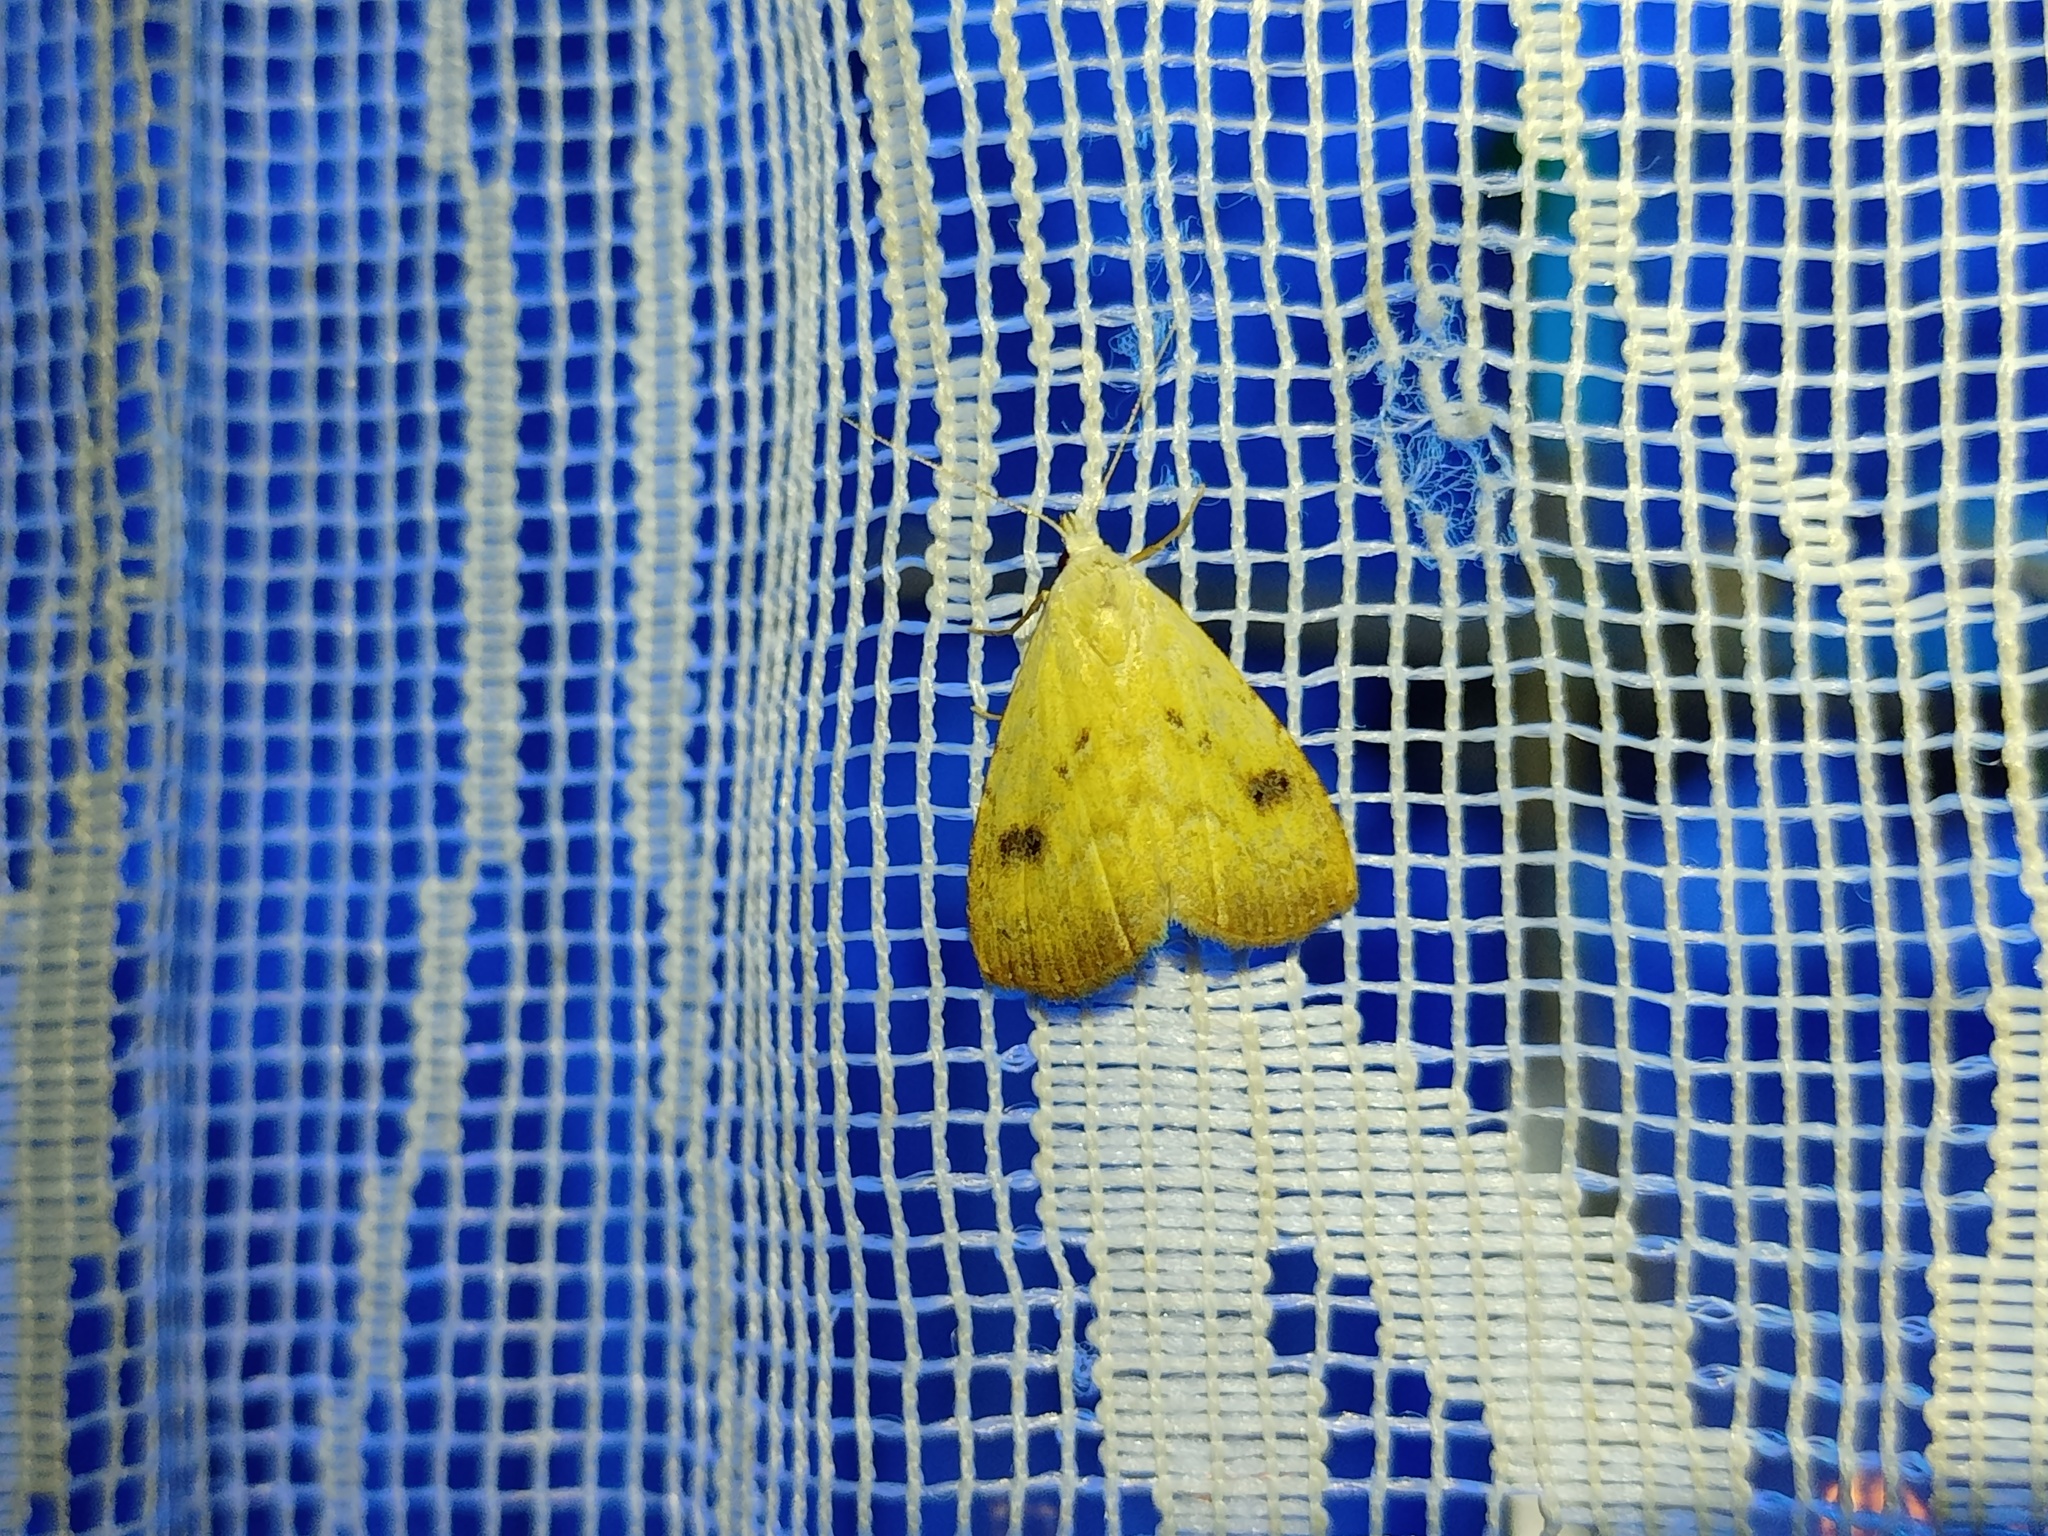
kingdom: Animalia
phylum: Arthropoda
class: Insecta
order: Lepidoptera
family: Erebidae
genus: Rivula
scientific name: Rivula sericealis
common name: Straw dot
